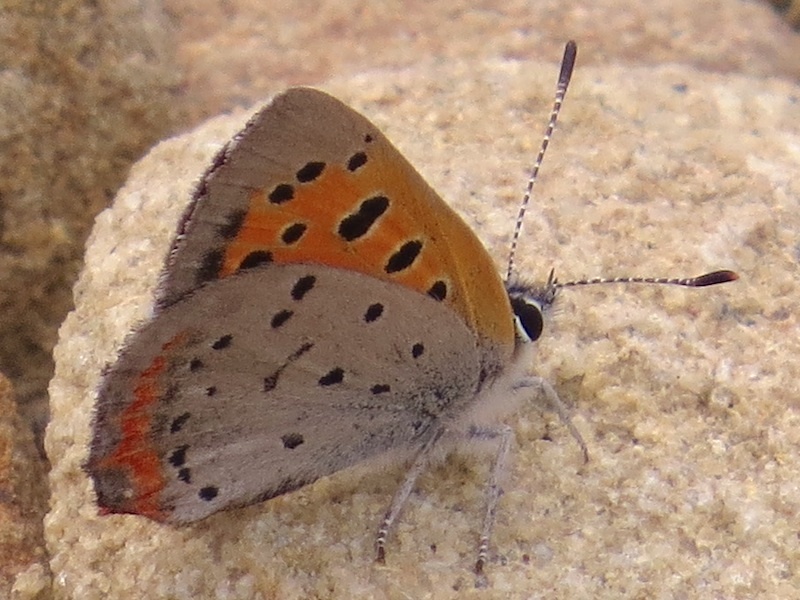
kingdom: Animalia
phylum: Arthropoda
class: Insecta
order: Lepidoptera
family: Lycaenidae
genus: Lycaena
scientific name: Lycaena hypophlaeas
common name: American copper
